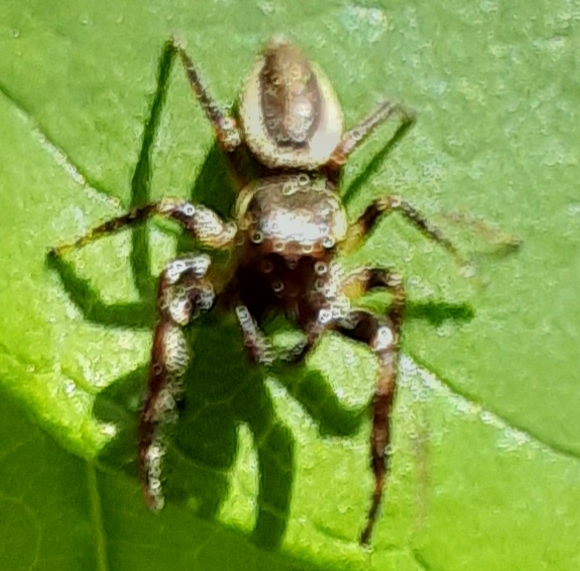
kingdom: Animalia
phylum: Arthropoda
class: Arachnida
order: Araneae
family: Salticidae
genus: Eris
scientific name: Eris militaris
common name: Bronze jumper
